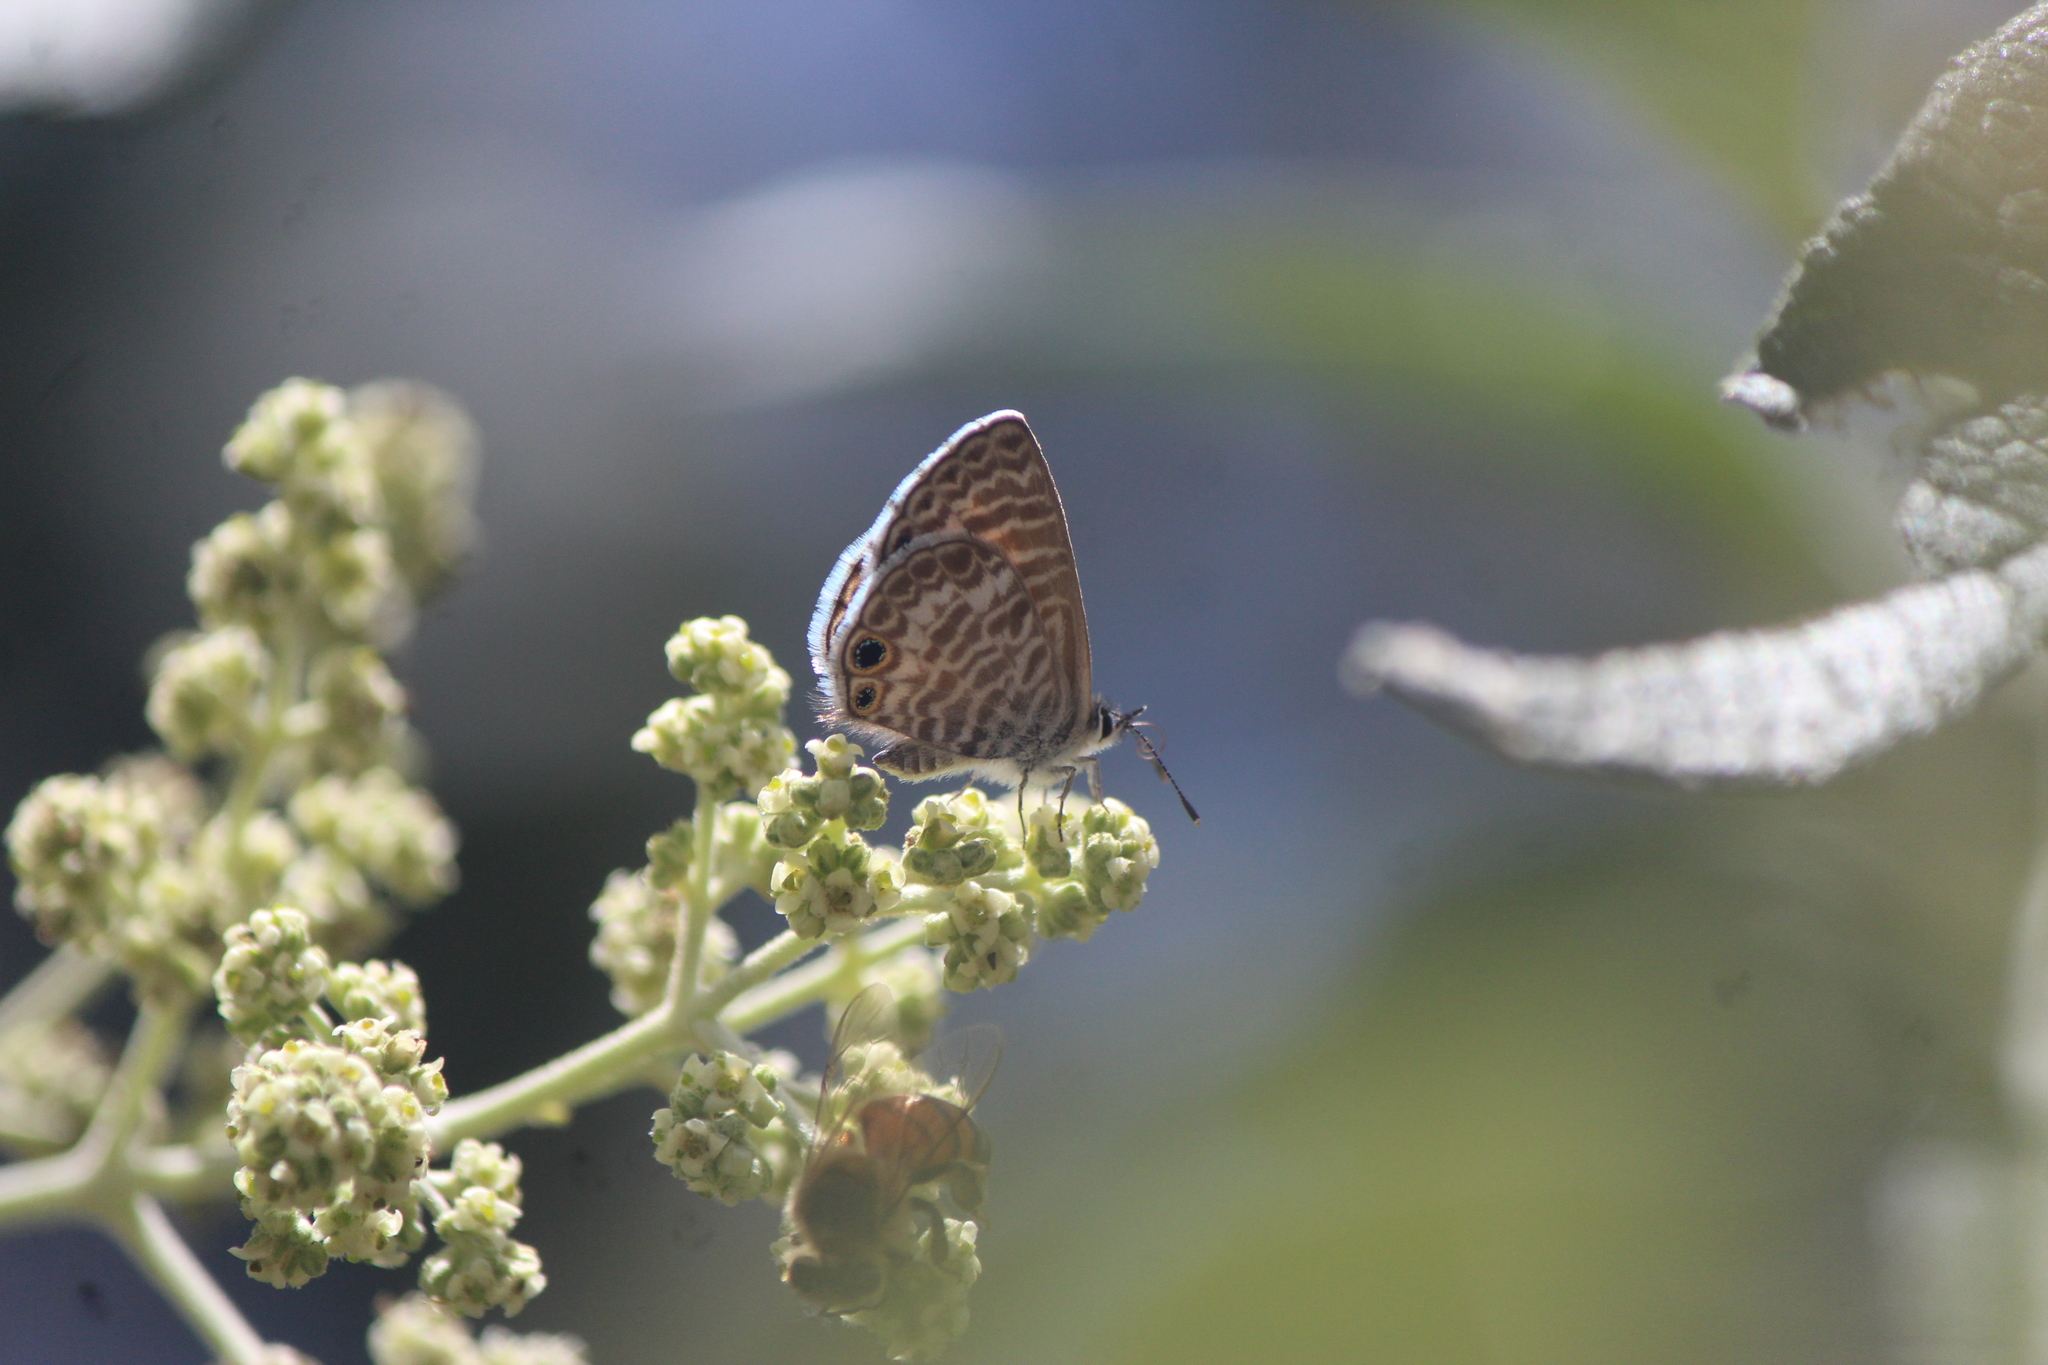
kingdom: Animalia
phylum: Arthropoda
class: Insecta
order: Lepidoptera
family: Lycaenidae
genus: Leptotes
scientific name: Leptotes marina
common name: Marine blue
